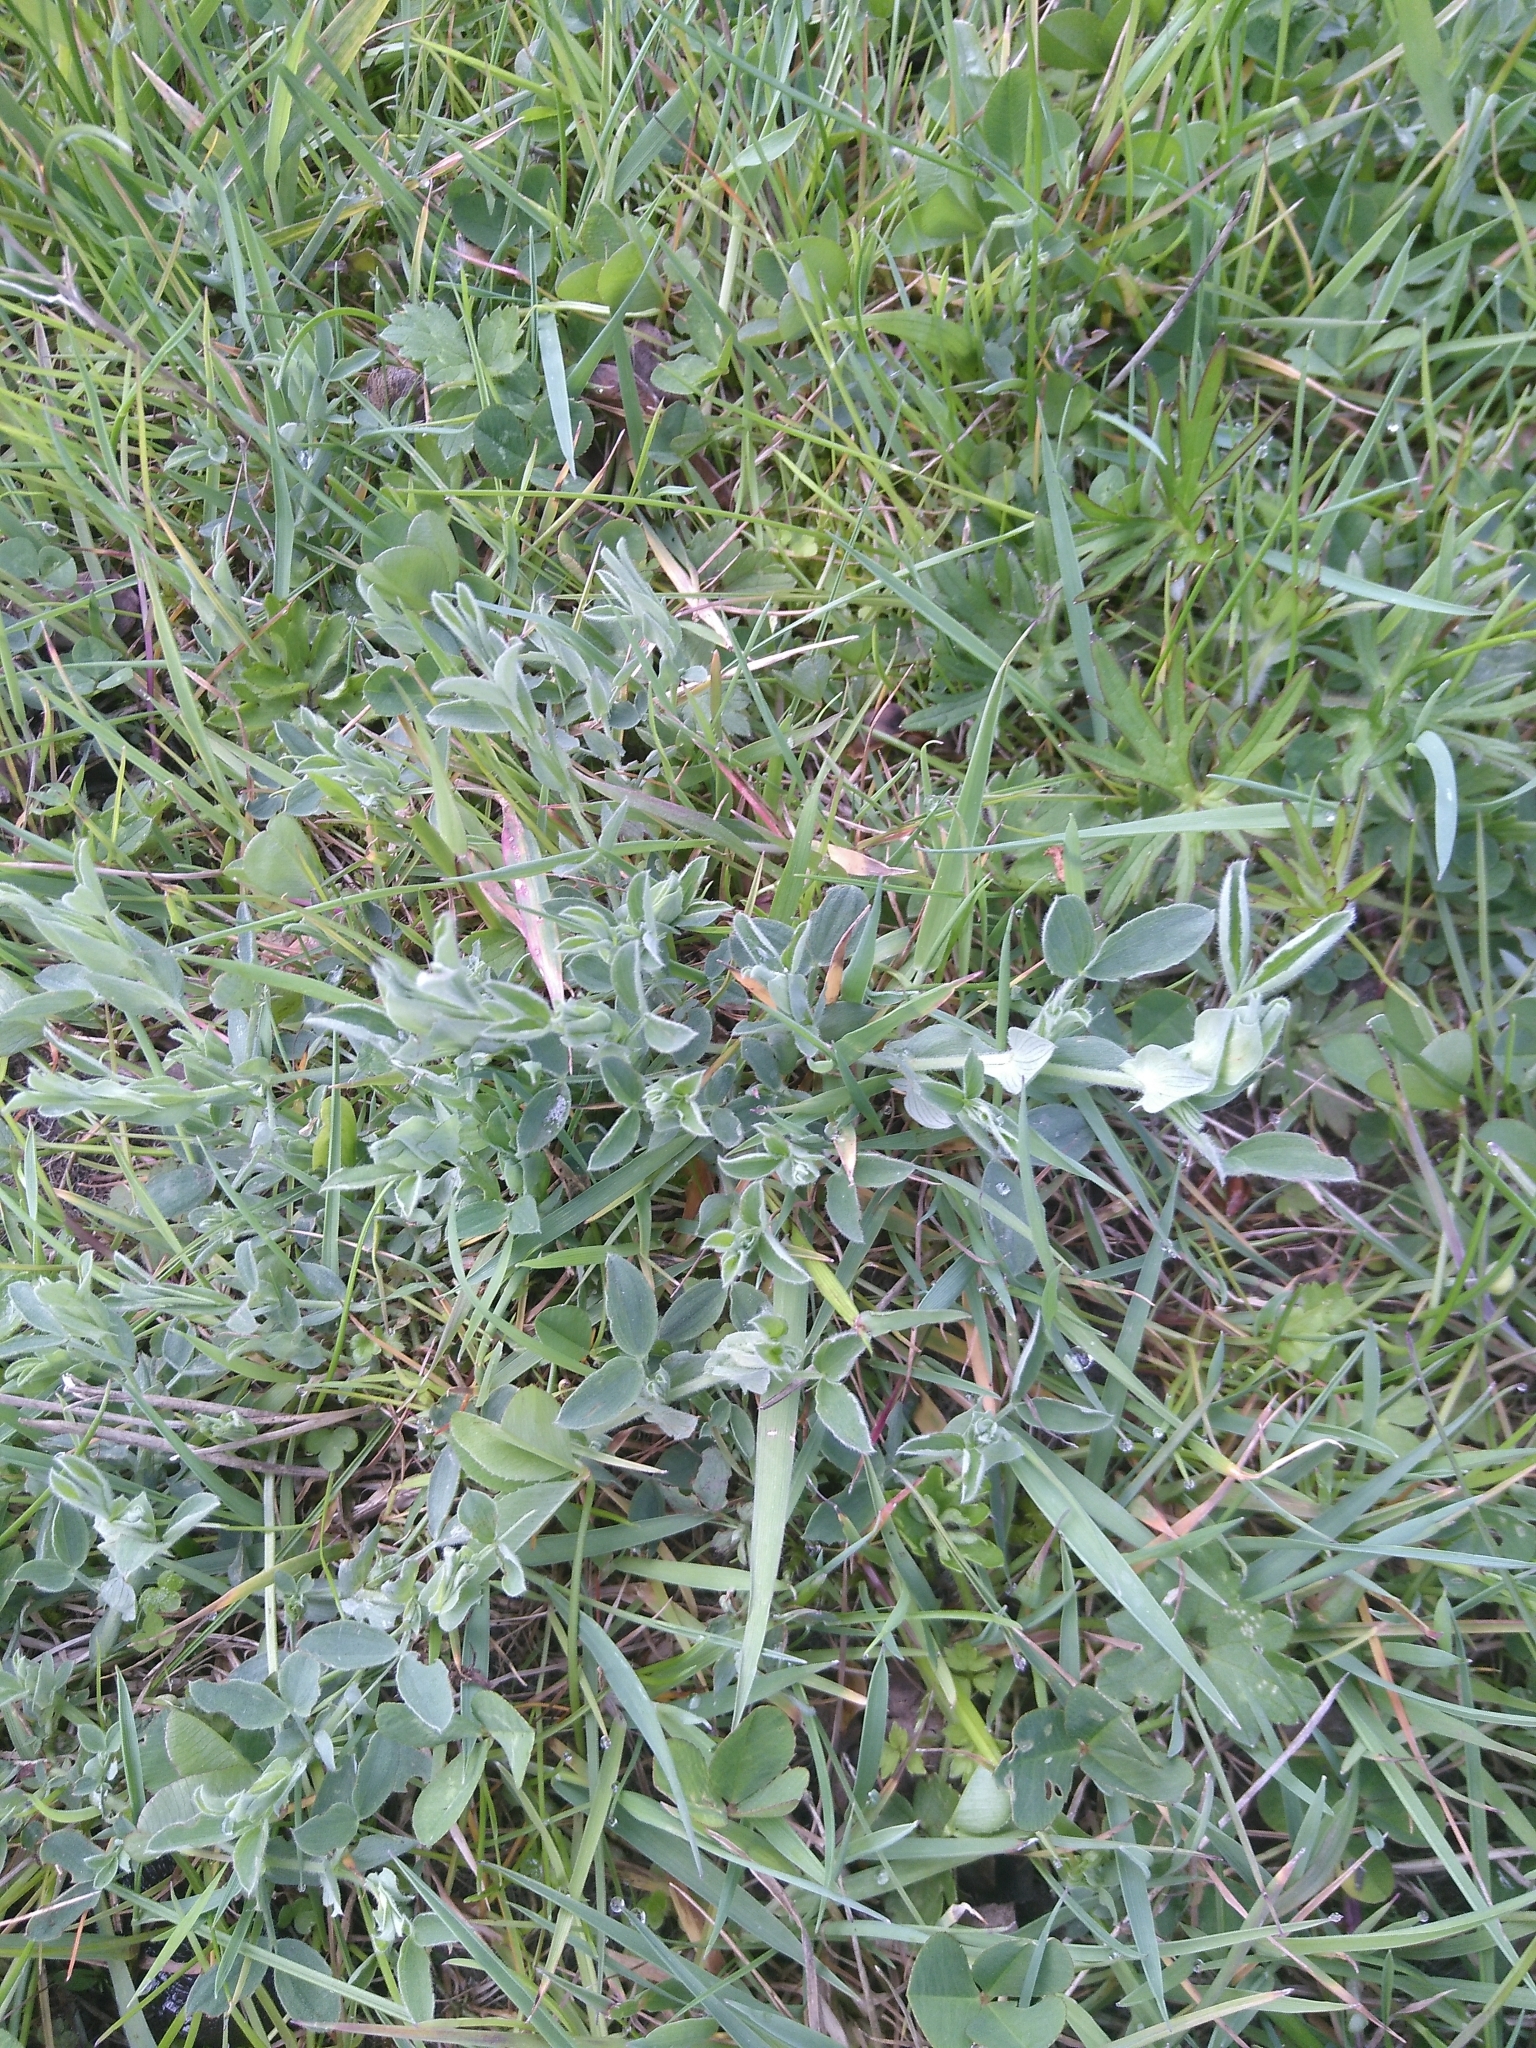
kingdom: Plantae
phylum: Tracheophyta
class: Magnoliopsida
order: Fabales
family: Fabaceae
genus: Lathyrus
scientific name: Lathyrus pratensis
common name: Meadow vetchling
